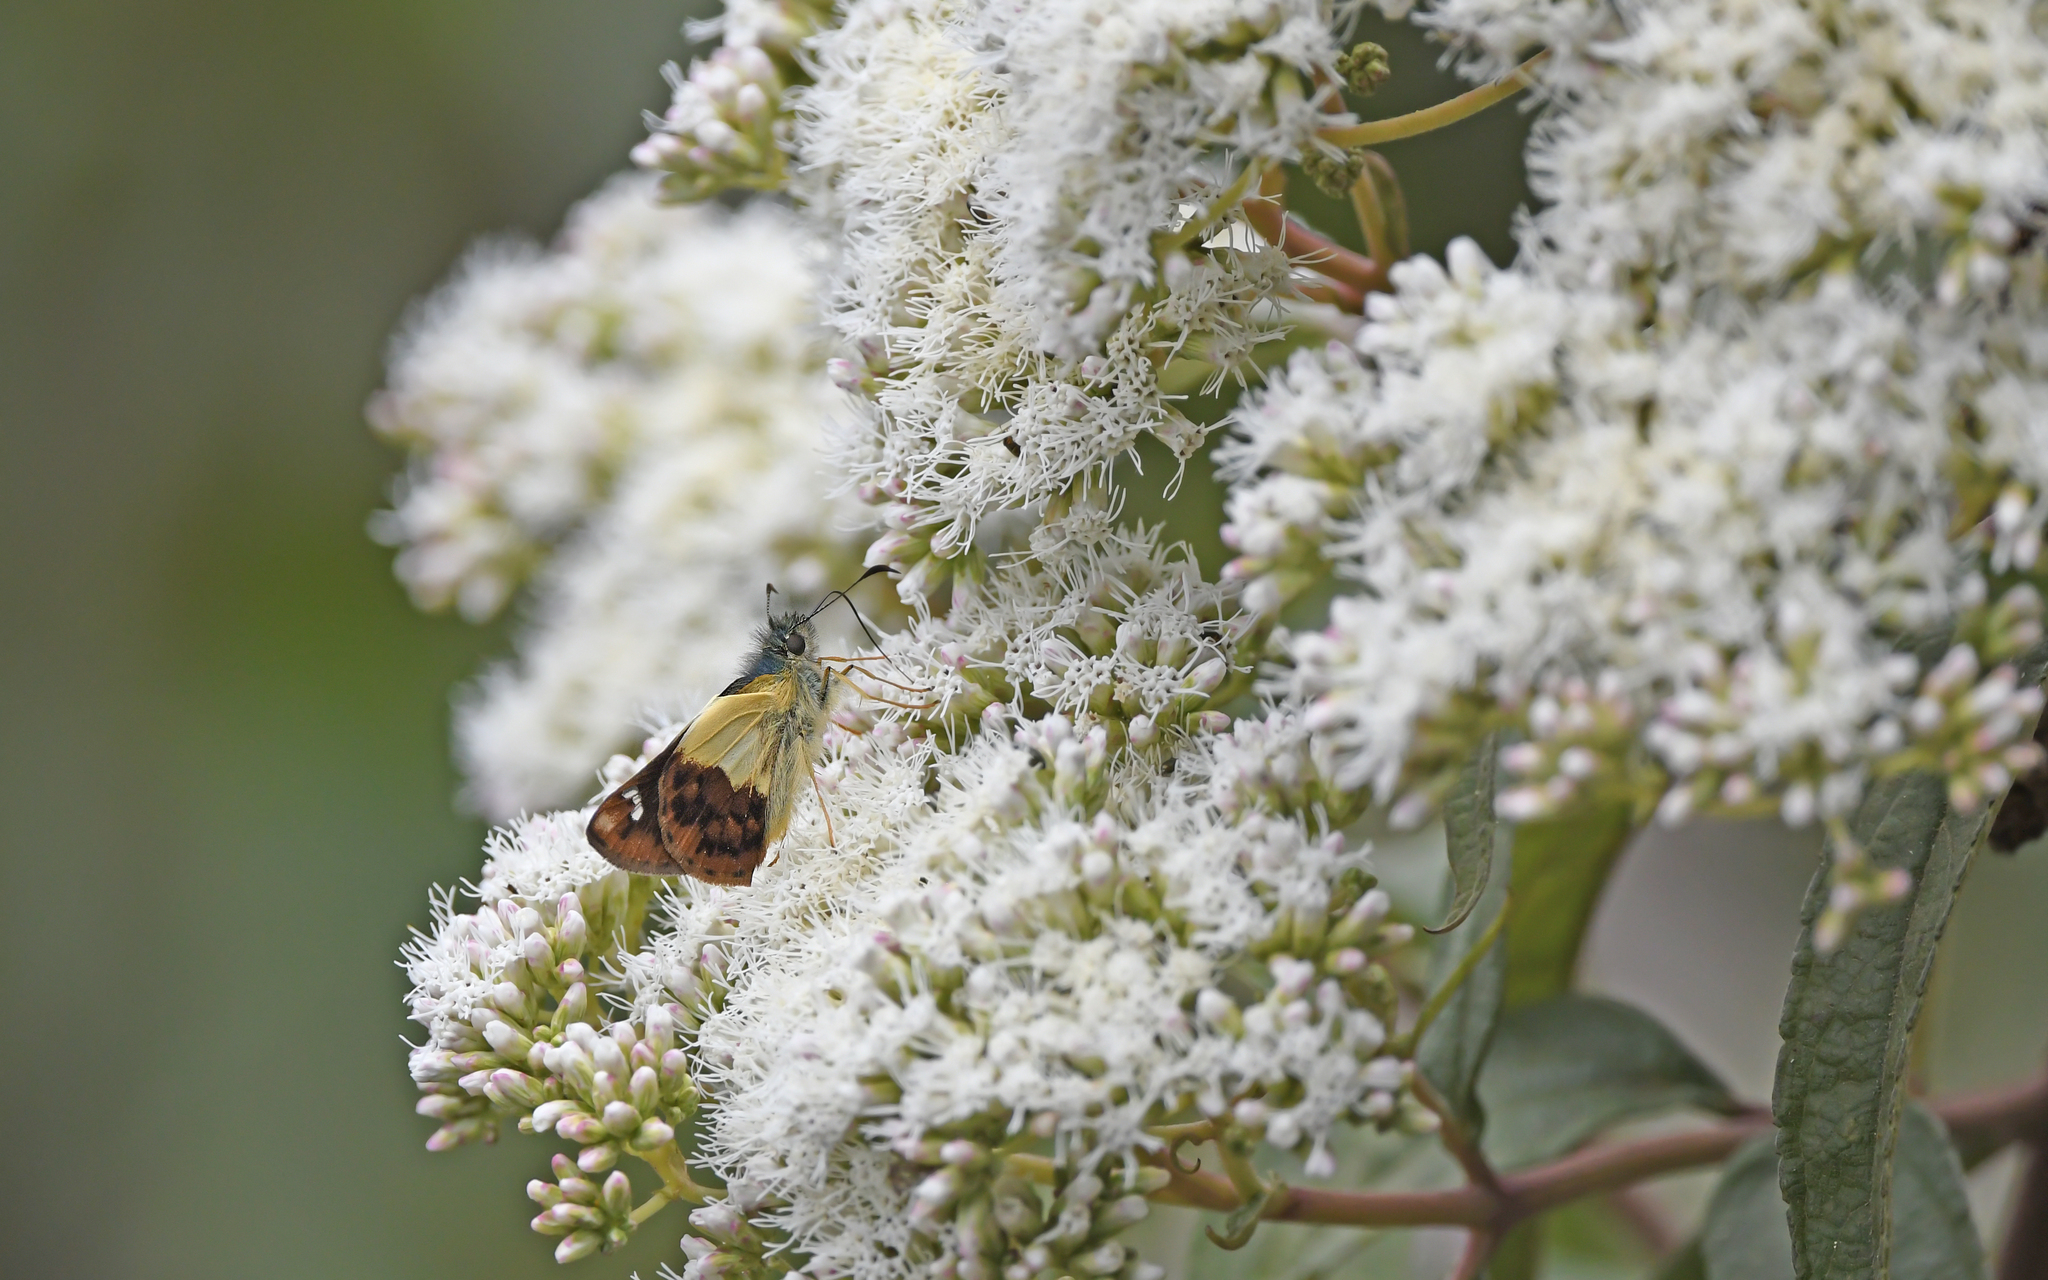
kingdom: Animalia
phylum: Arthropoda
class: Insecta
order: Lepidoptera
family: Hesperiidae
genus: Dalla
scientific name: Dalla dimidiatus
